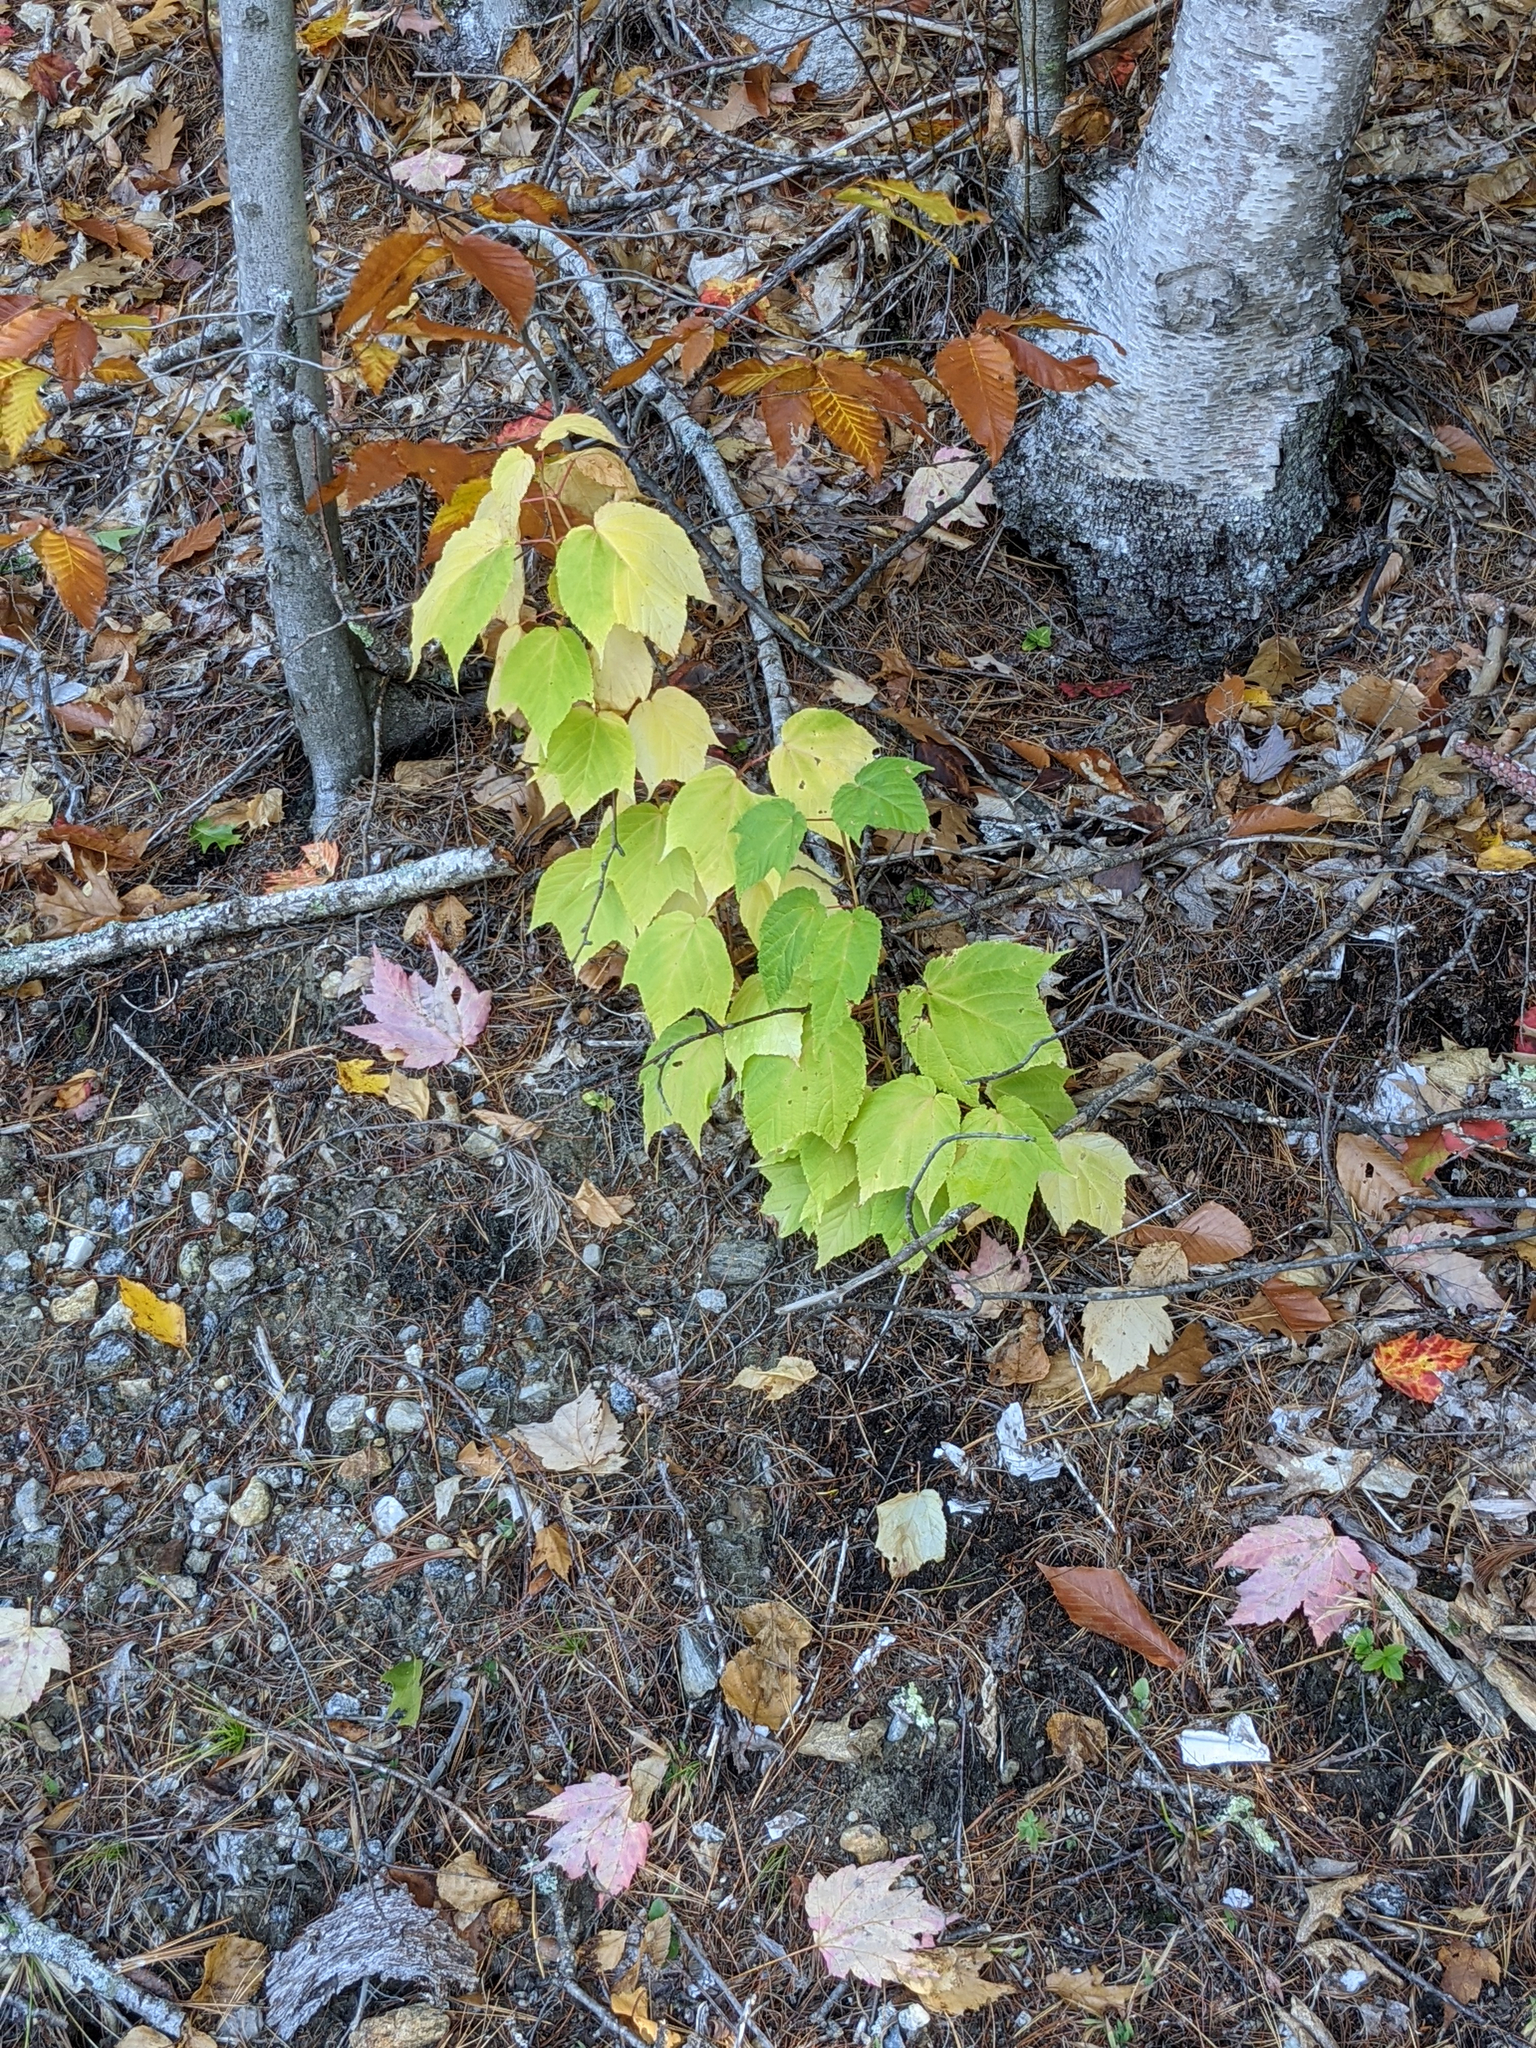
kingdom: Plantae
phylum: Tracheophyta
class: Magnoliopsida
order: Sapindales
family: Sapindaceae
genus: Acer
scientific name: Acer pensylvanicum
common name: Moosewood
